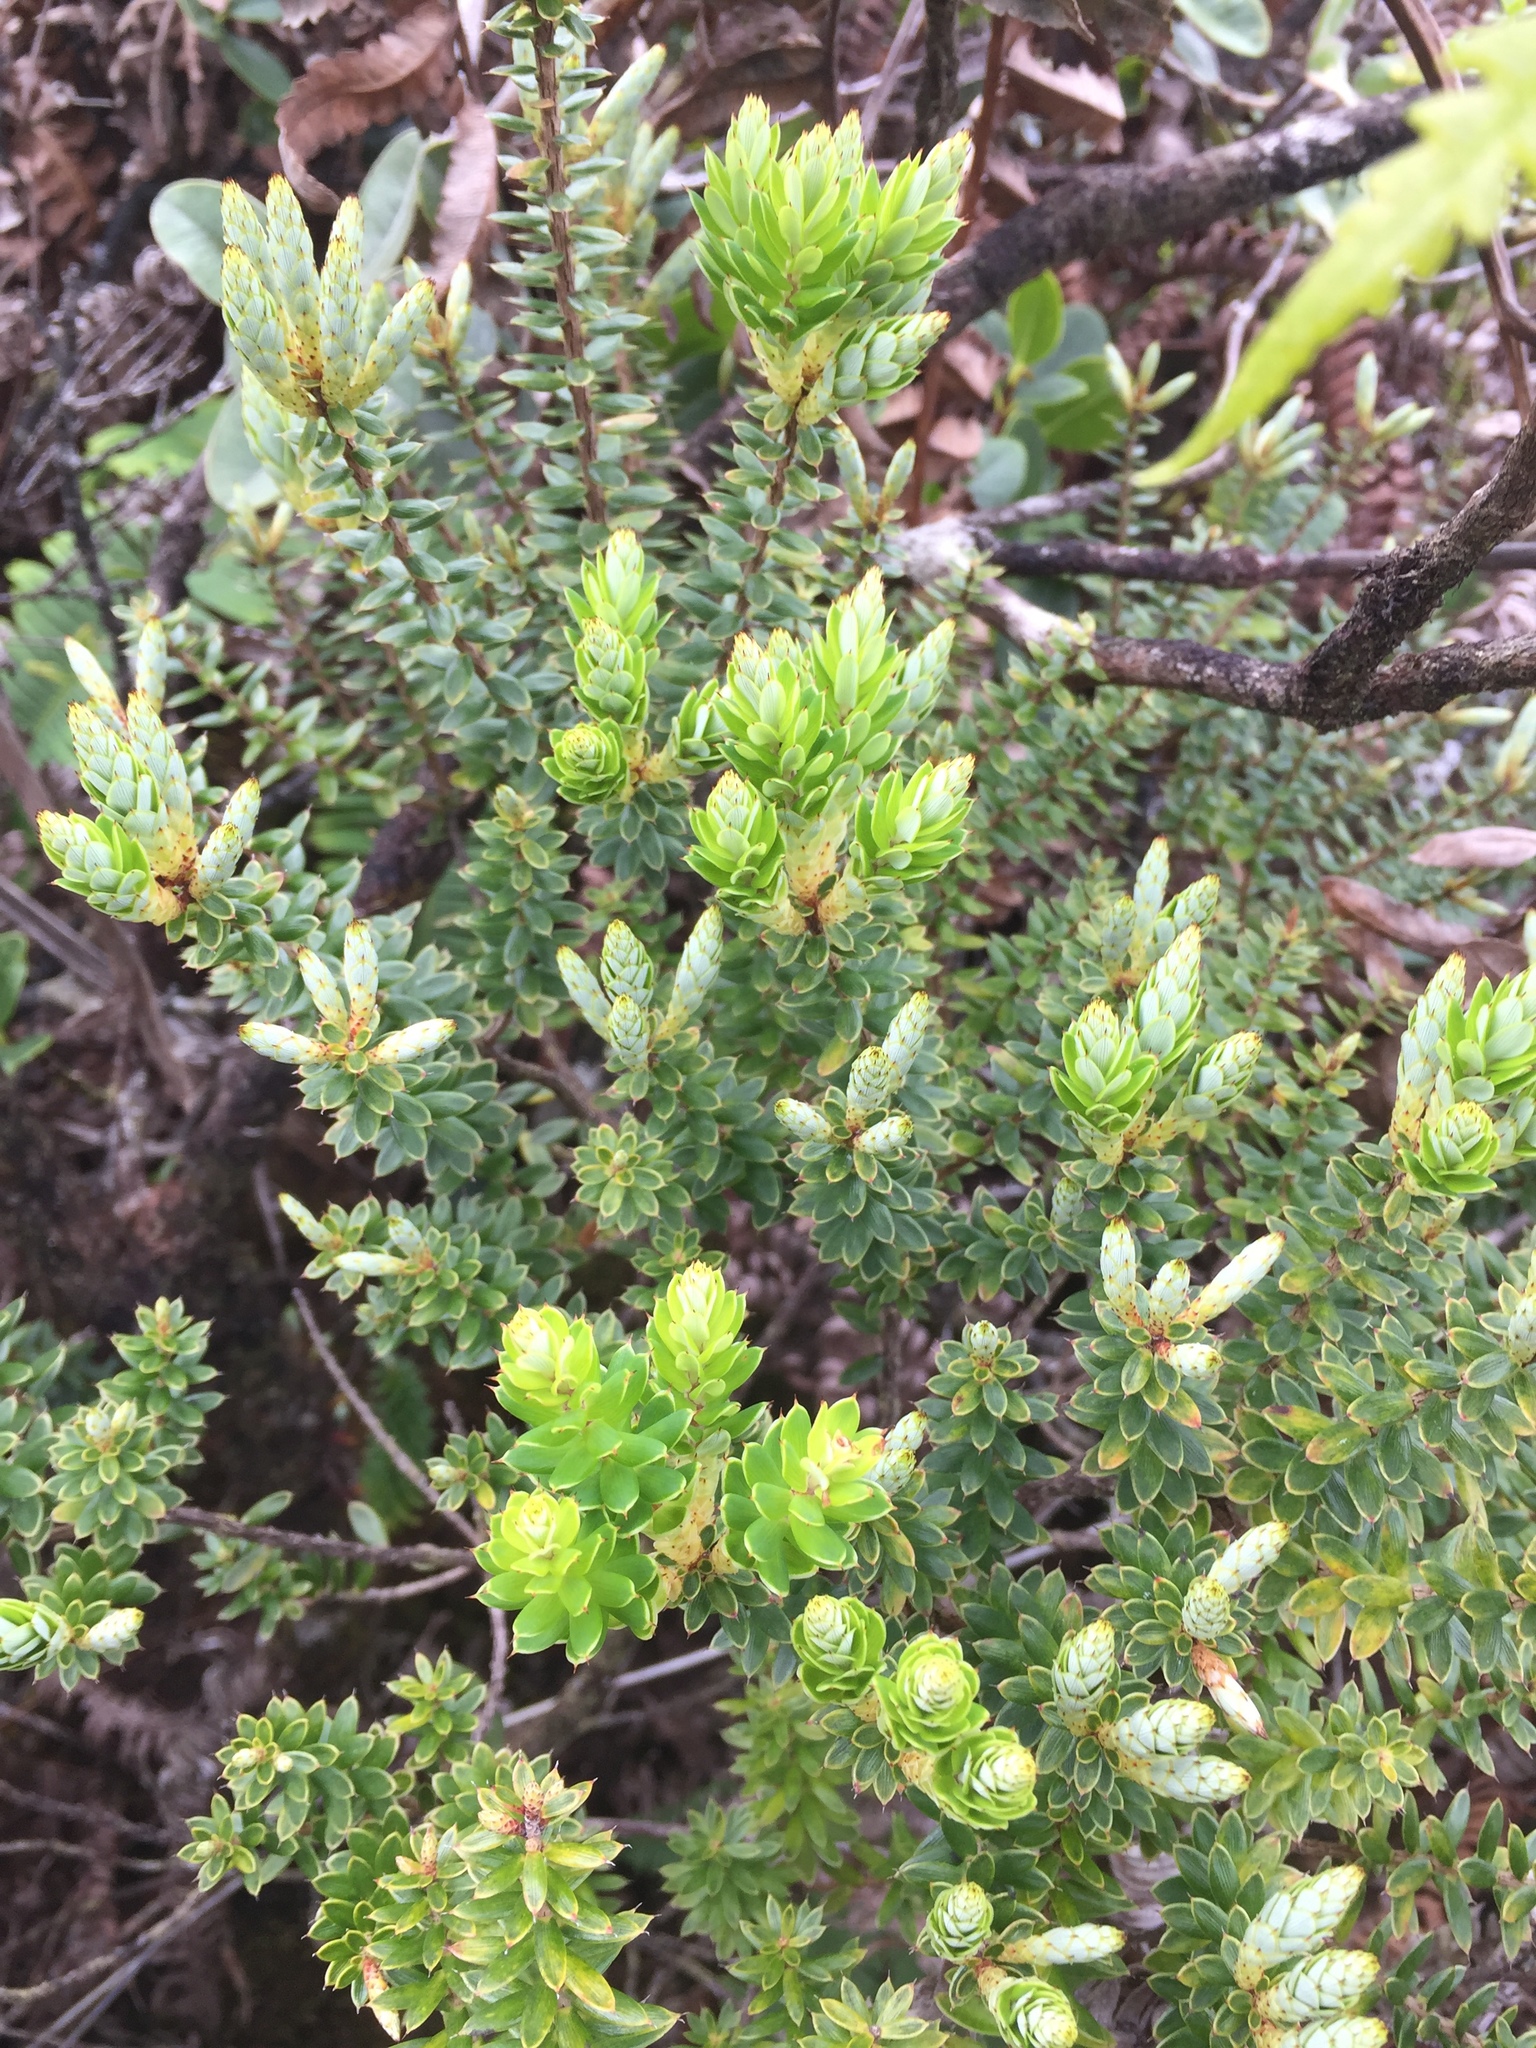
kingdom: Plantae
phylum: Tracheophyta
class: Magnoliopsida
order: Ericales
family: Ericaceae
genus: Leptecophylla
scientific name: Leptecophylla tameiameiae
